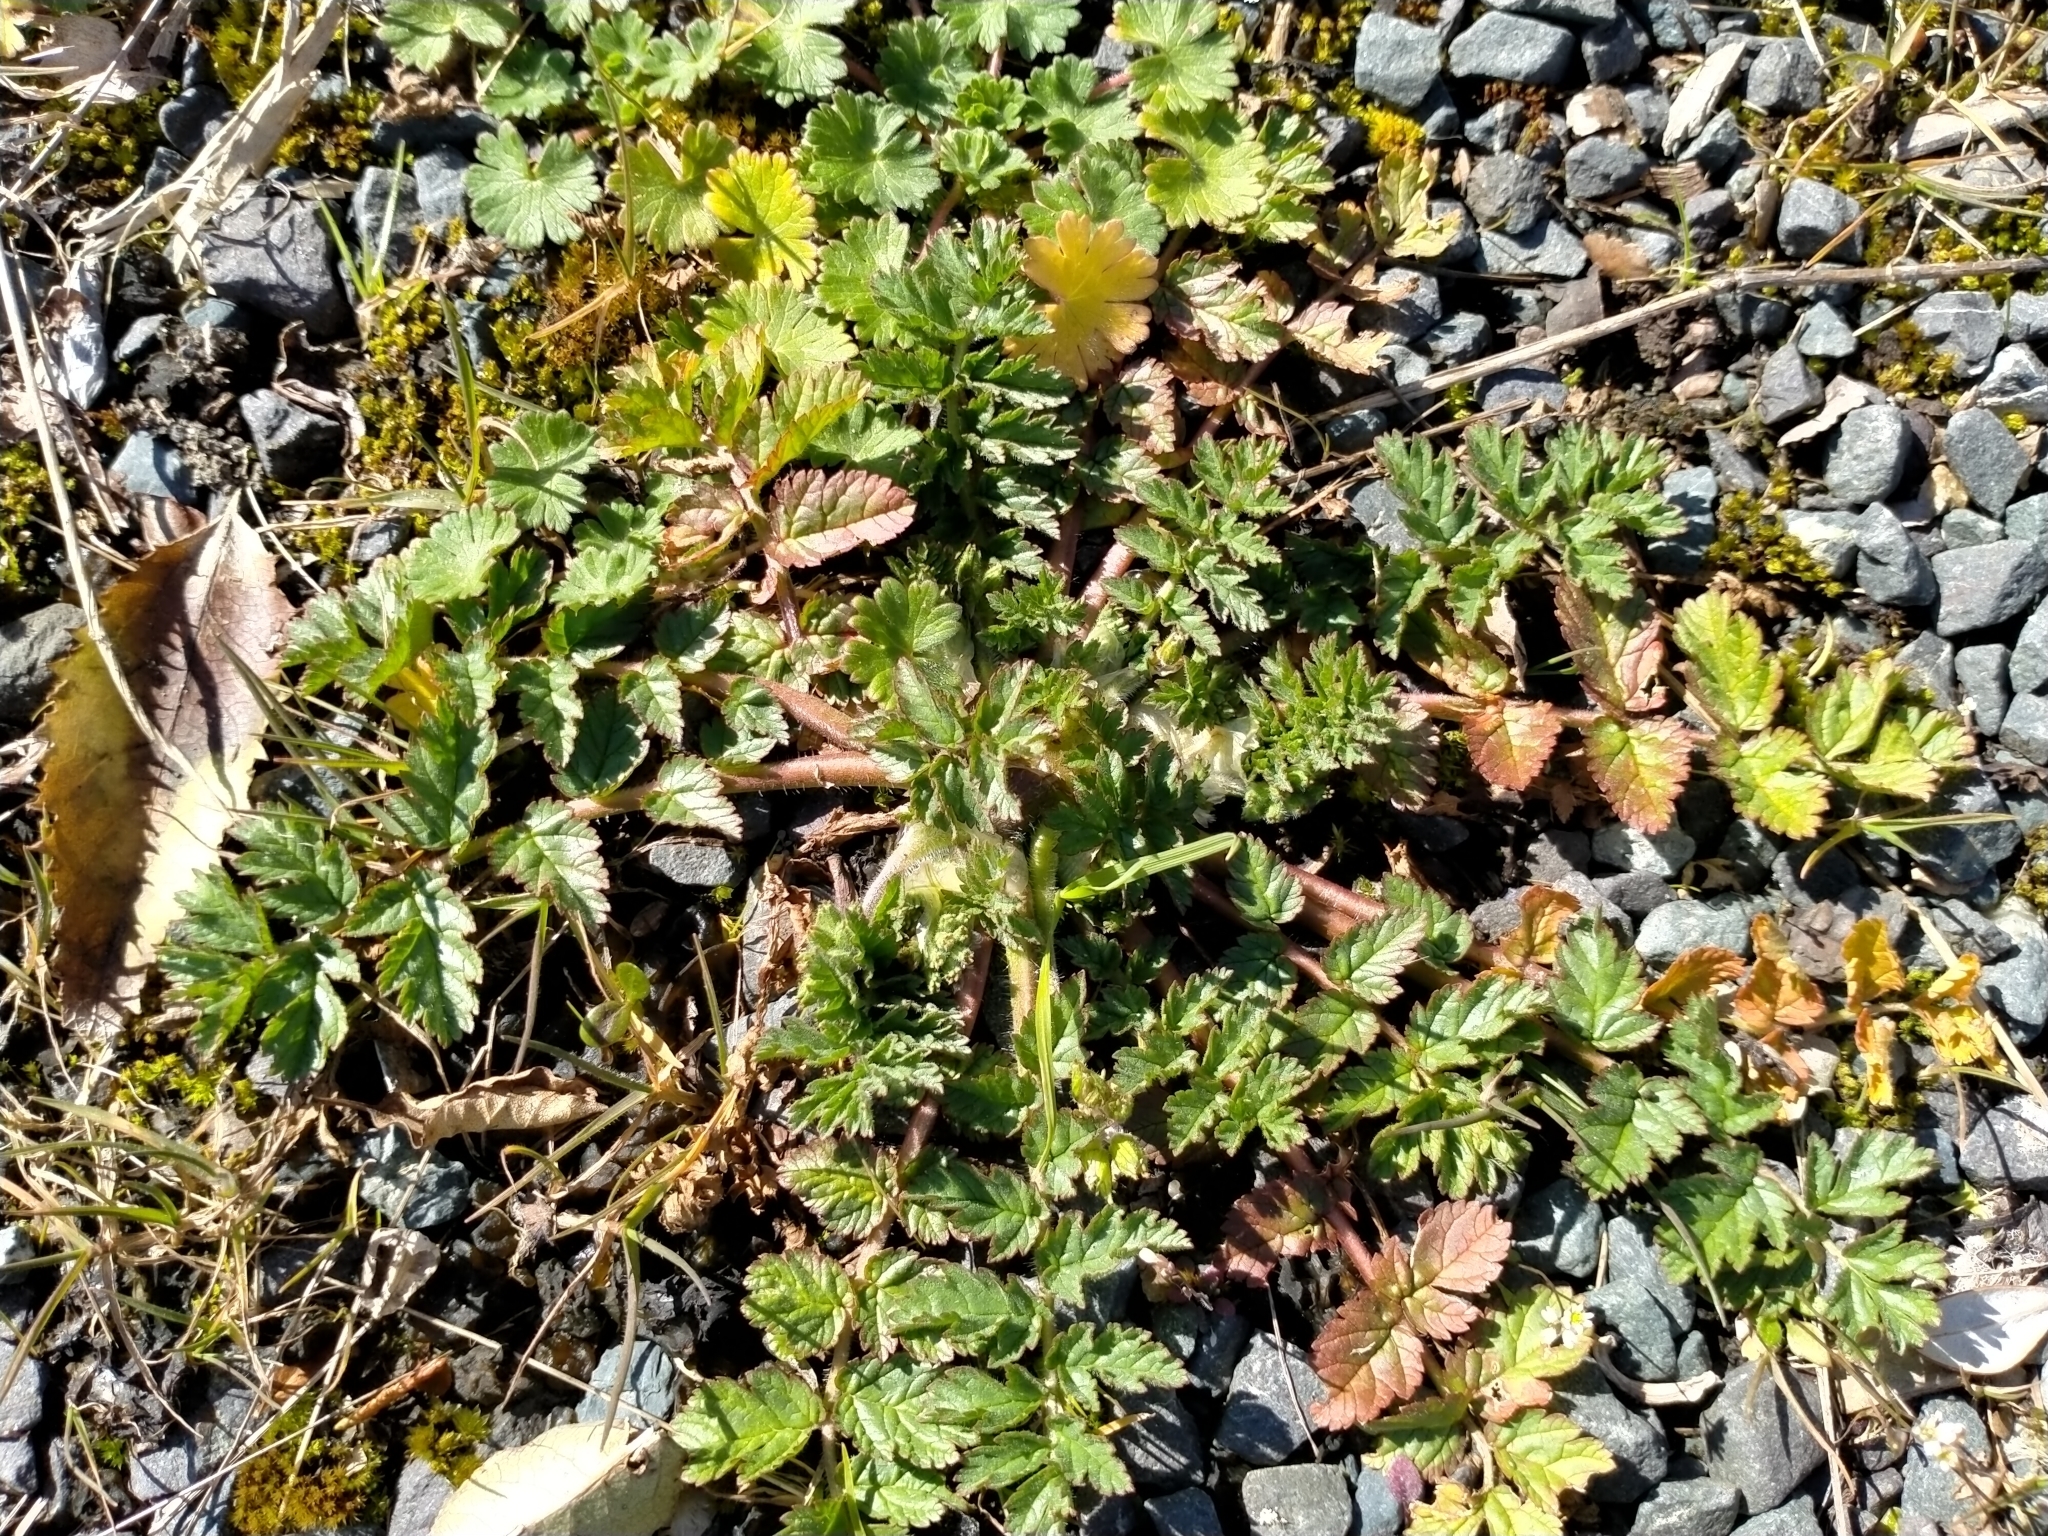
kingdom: Plantae
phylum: Tracheophyta
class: Magnoliopsida
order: Geraniales
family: Geraniaceae
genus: Erodium
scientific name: Erodium moschatum
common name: Musk stork's-bill
